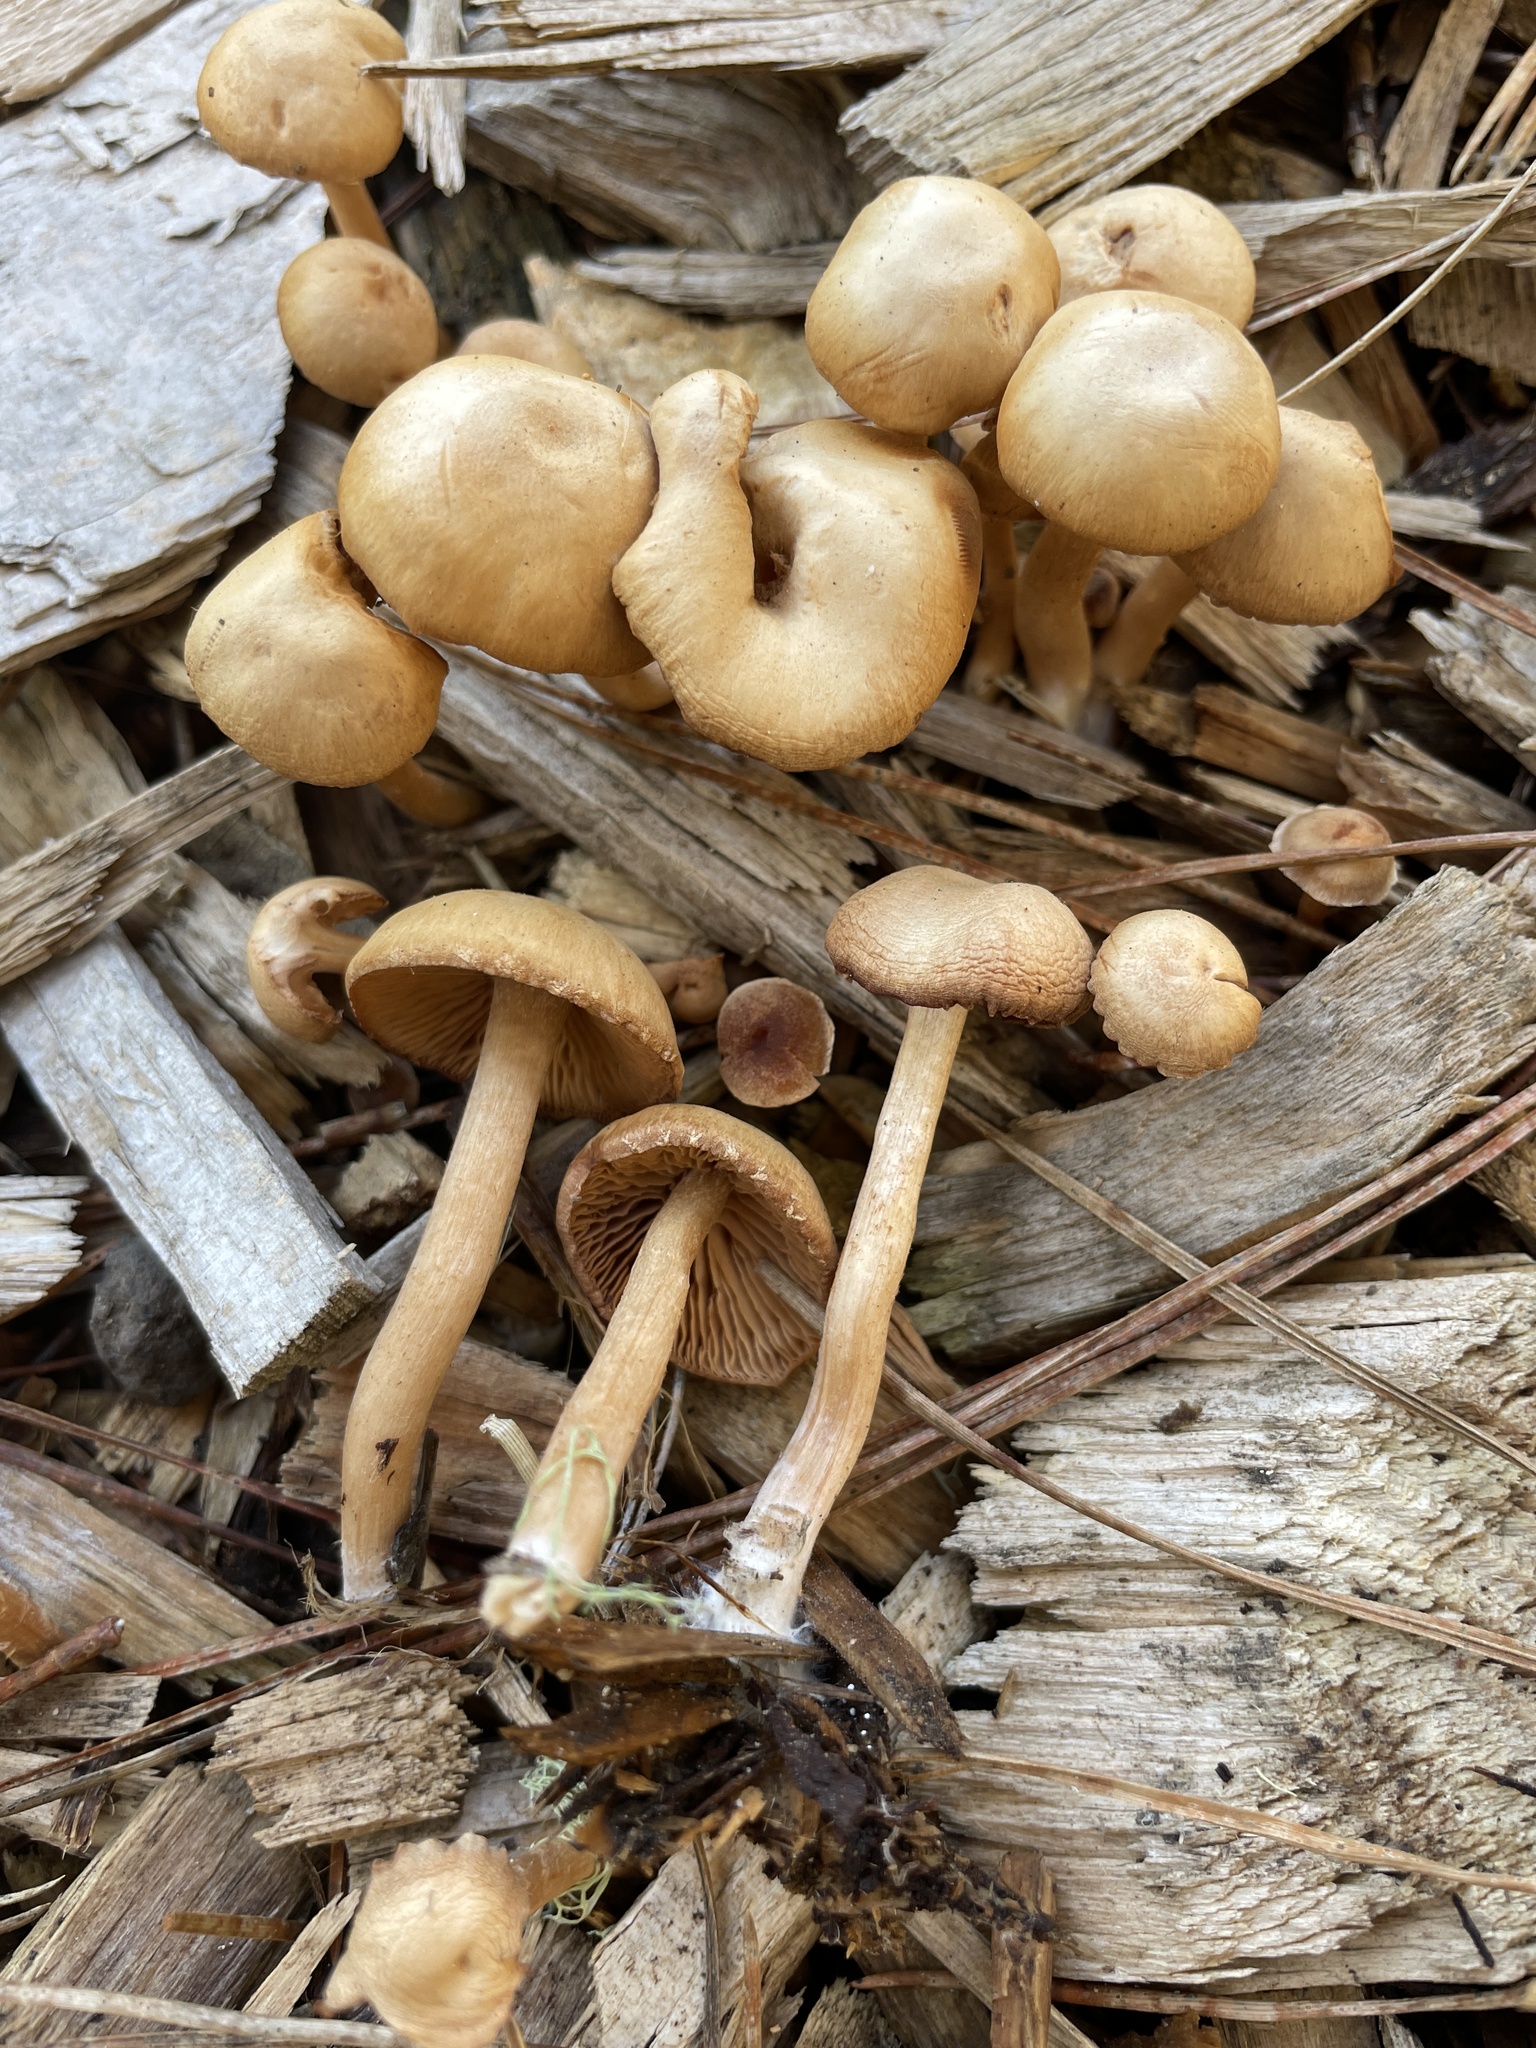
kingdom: Fungi
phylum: Basidiomycota
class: Agaricomycetes
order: Agaricales
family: Tubariaceae
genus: Tubaria
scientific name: Tubaria furfuracea
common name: Scurfy twiglet
